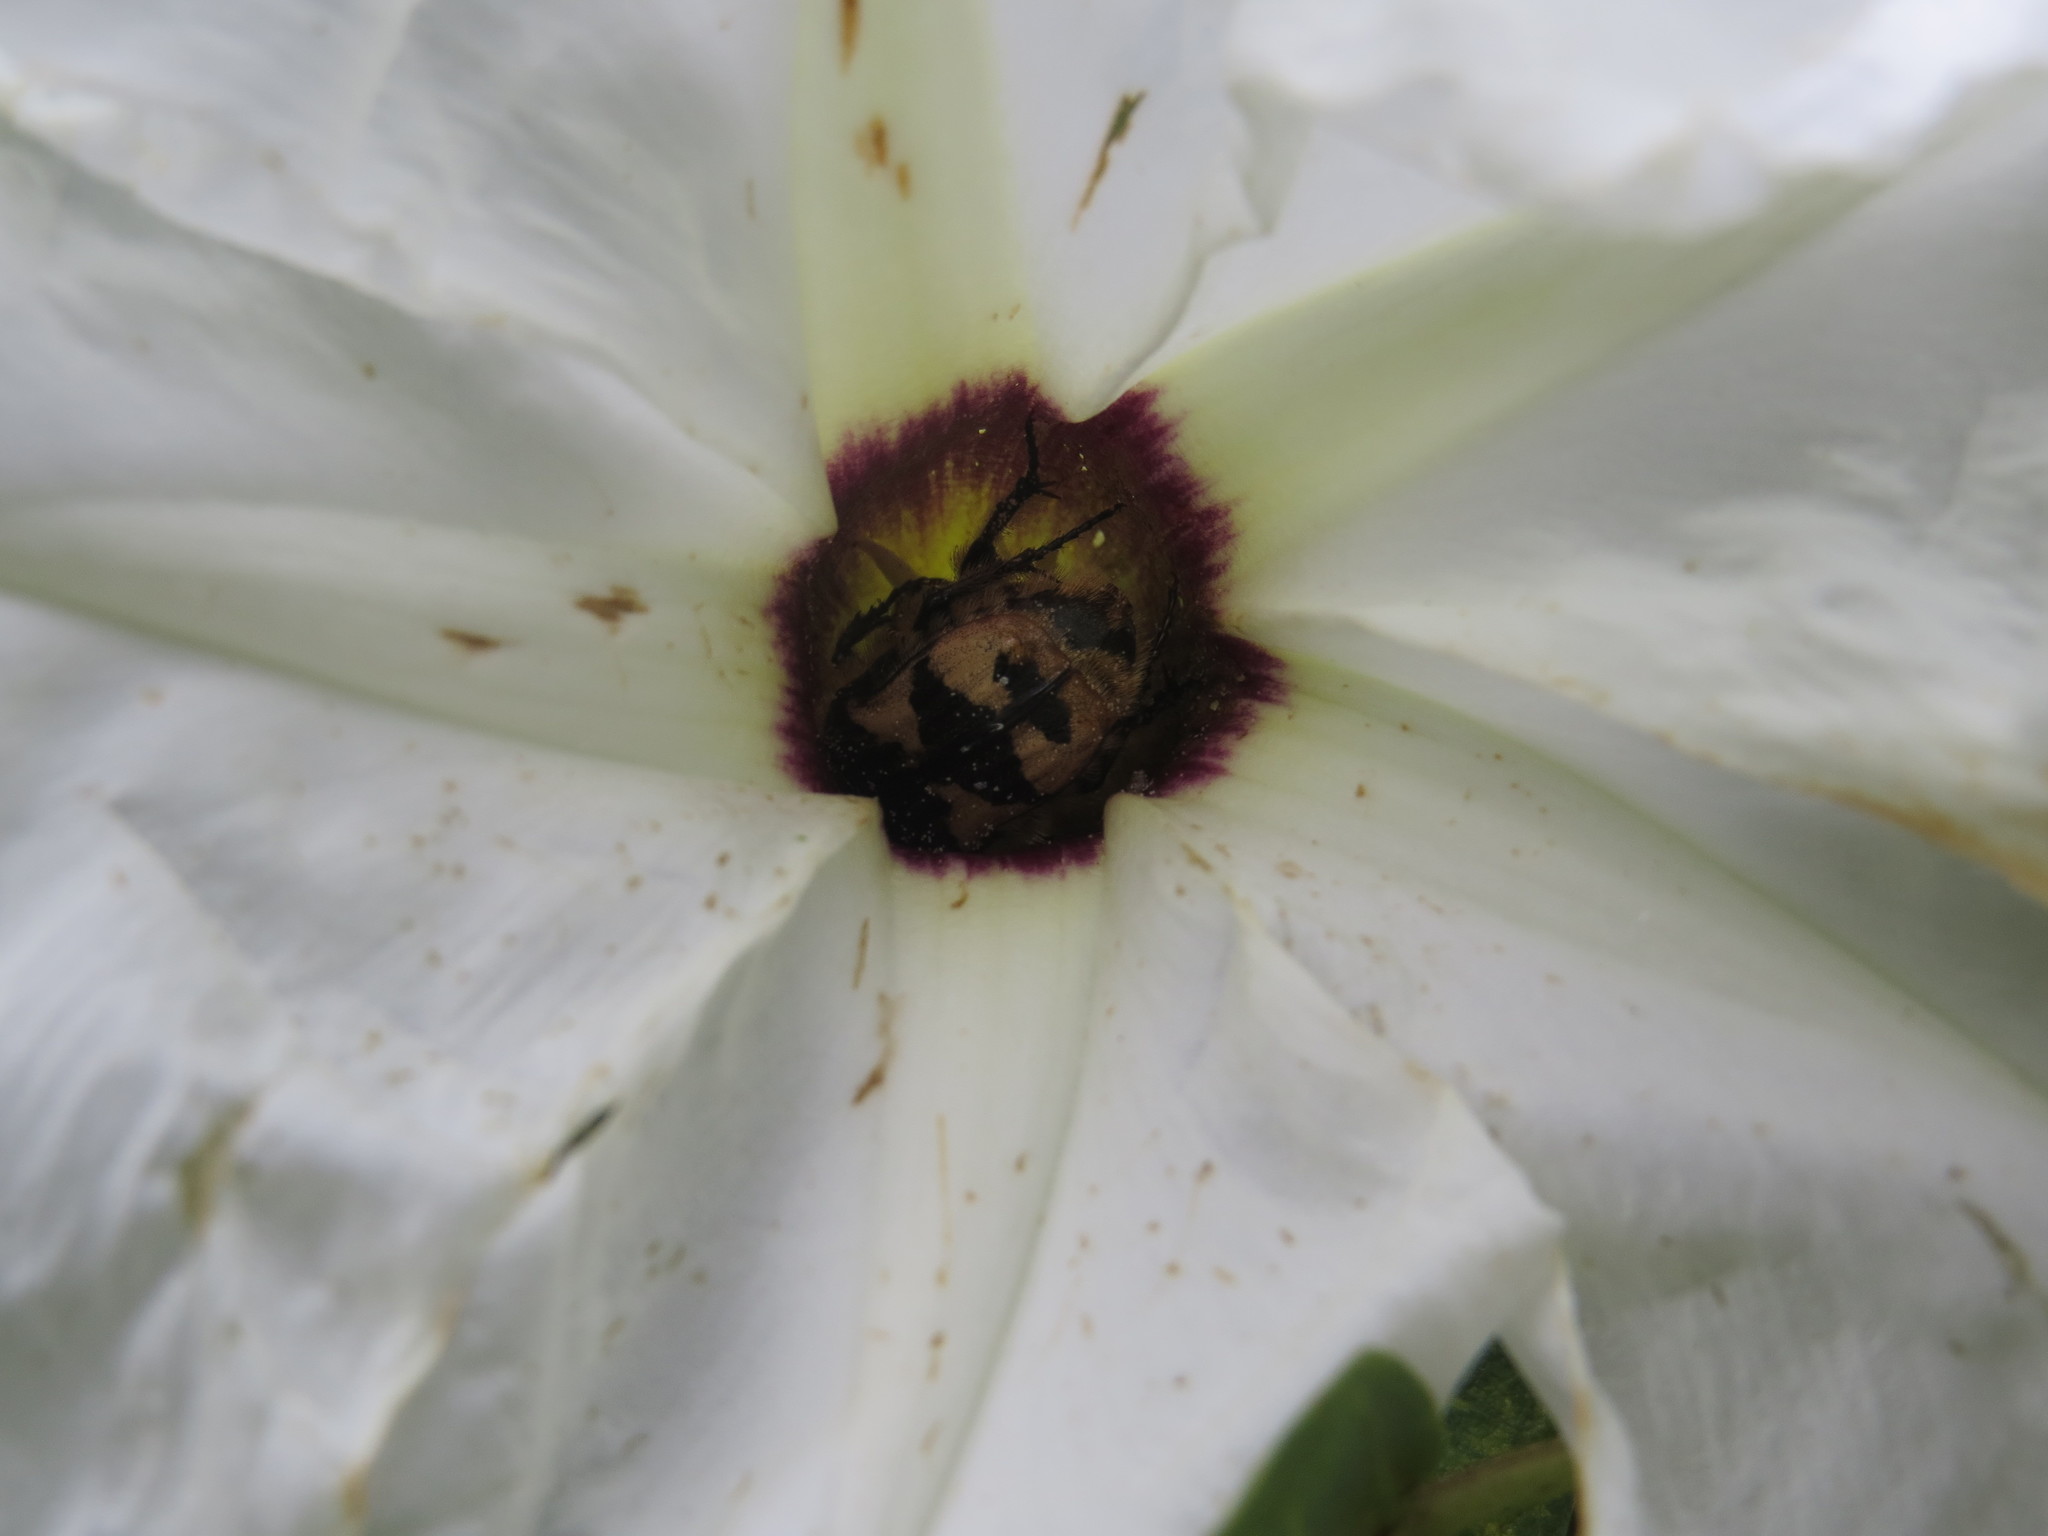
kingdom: Animalia
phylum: Arthropoda
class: Insecta
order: Coleoptera
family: Scarabaeidae
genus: Euphoria
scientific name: Euphoria basalis
